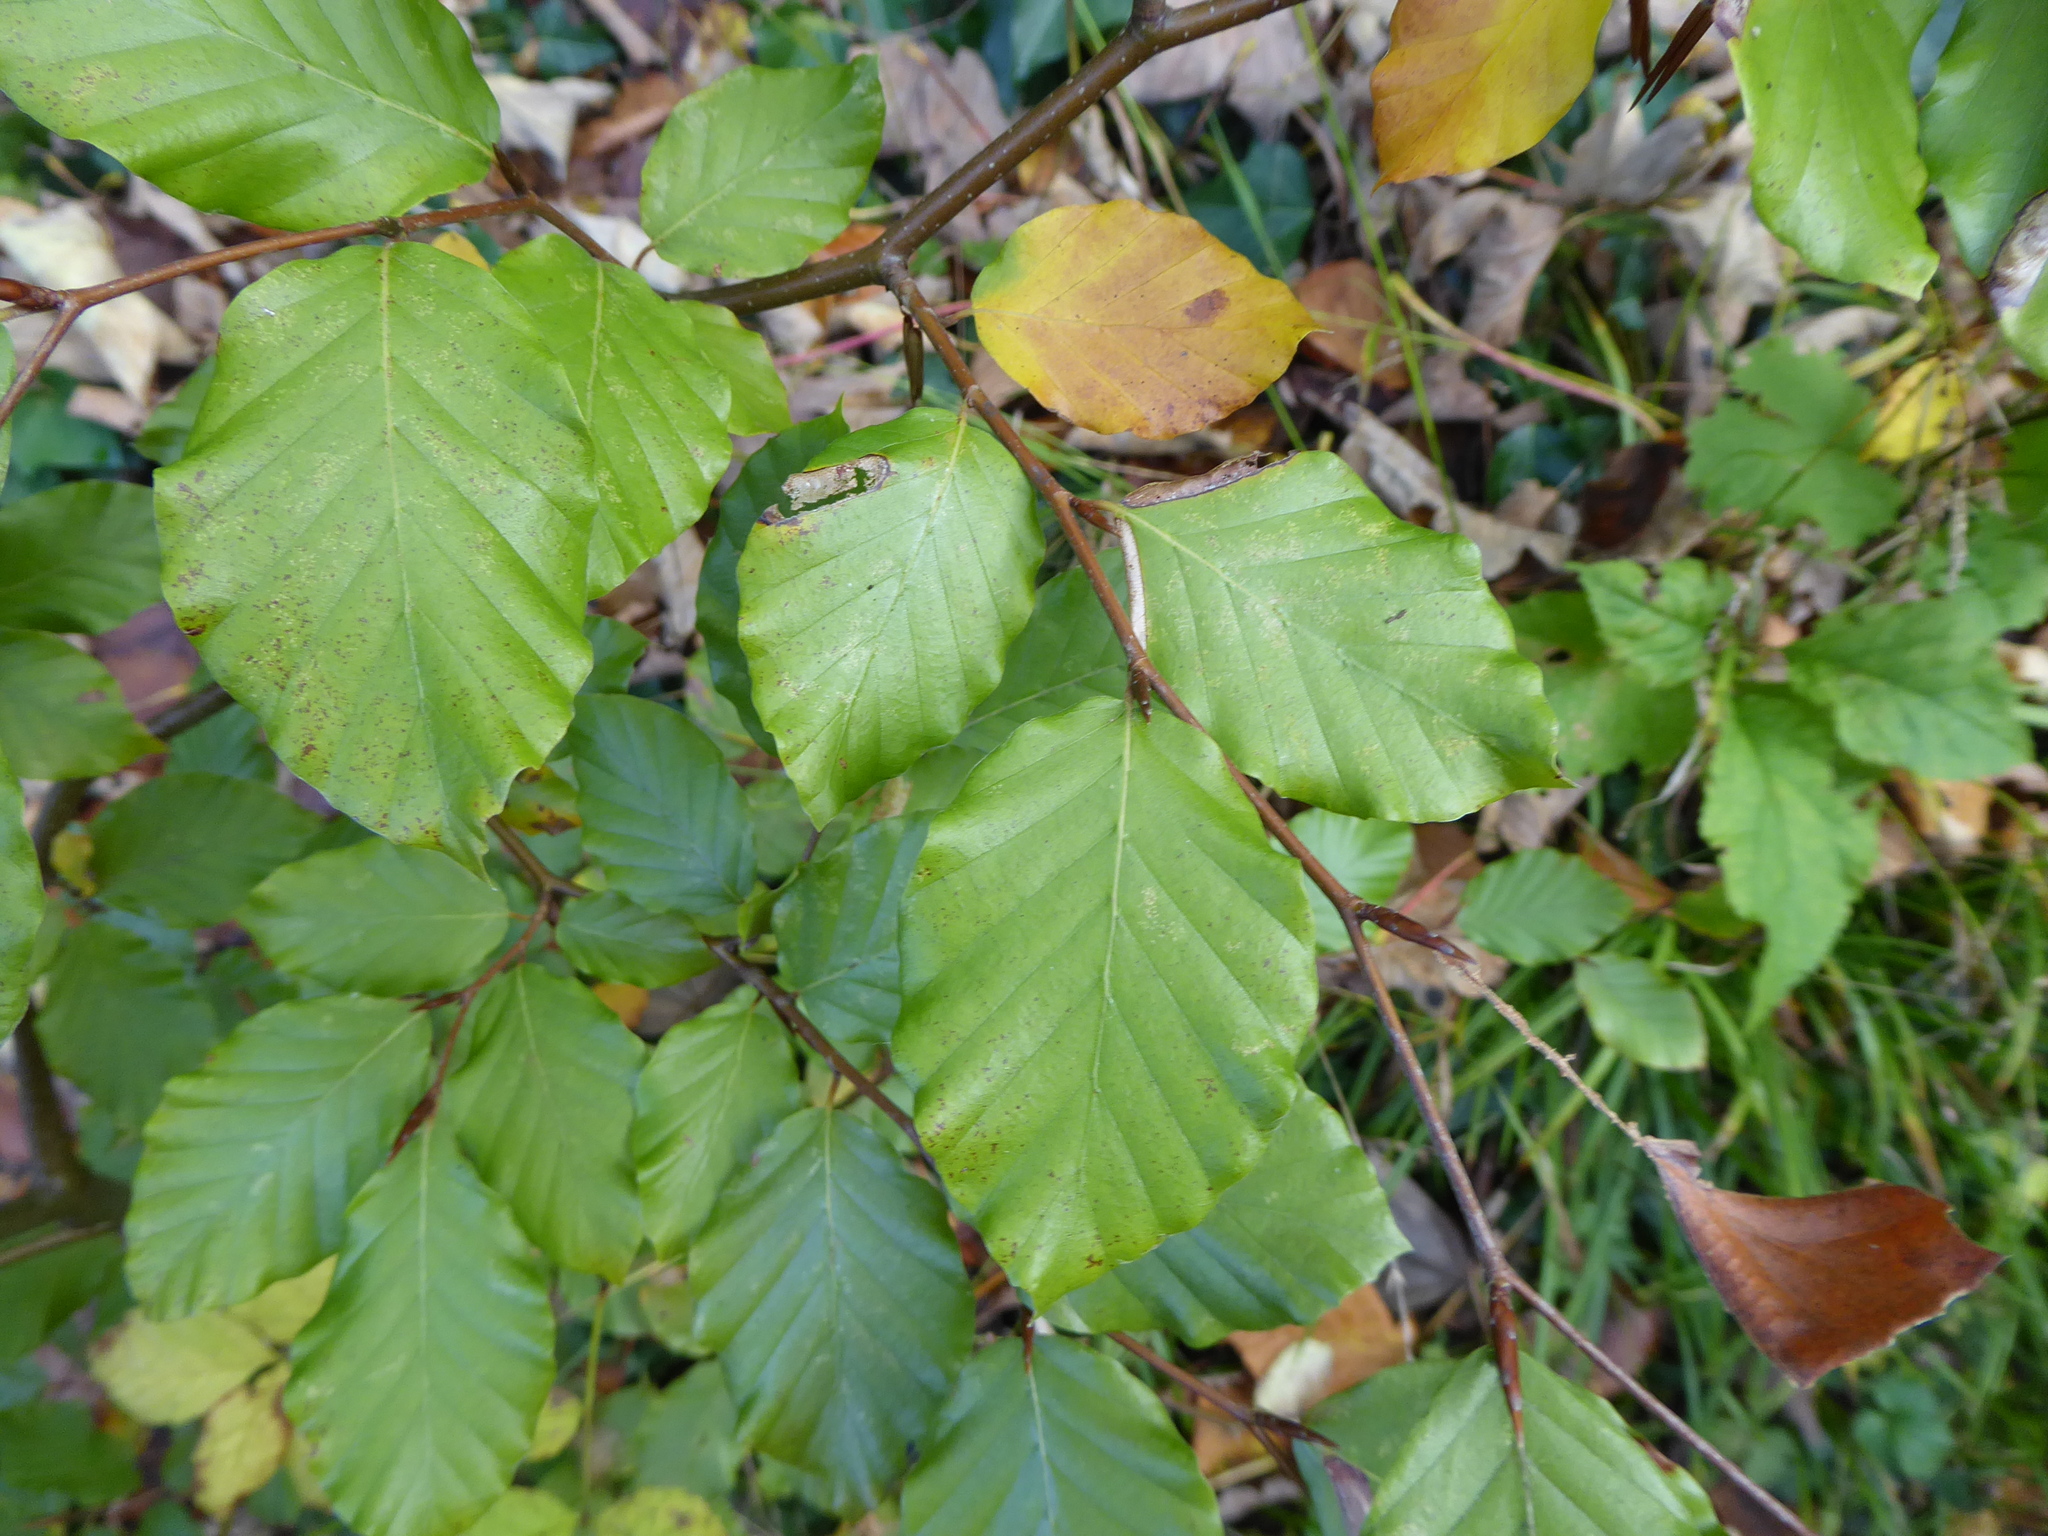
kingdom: Plantae
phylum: Tracheophyta
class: Magnoliopsida
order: Fagales
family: Betulaceae
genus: Carpinus
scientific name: Carpinus betulus
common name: Hornbeam
